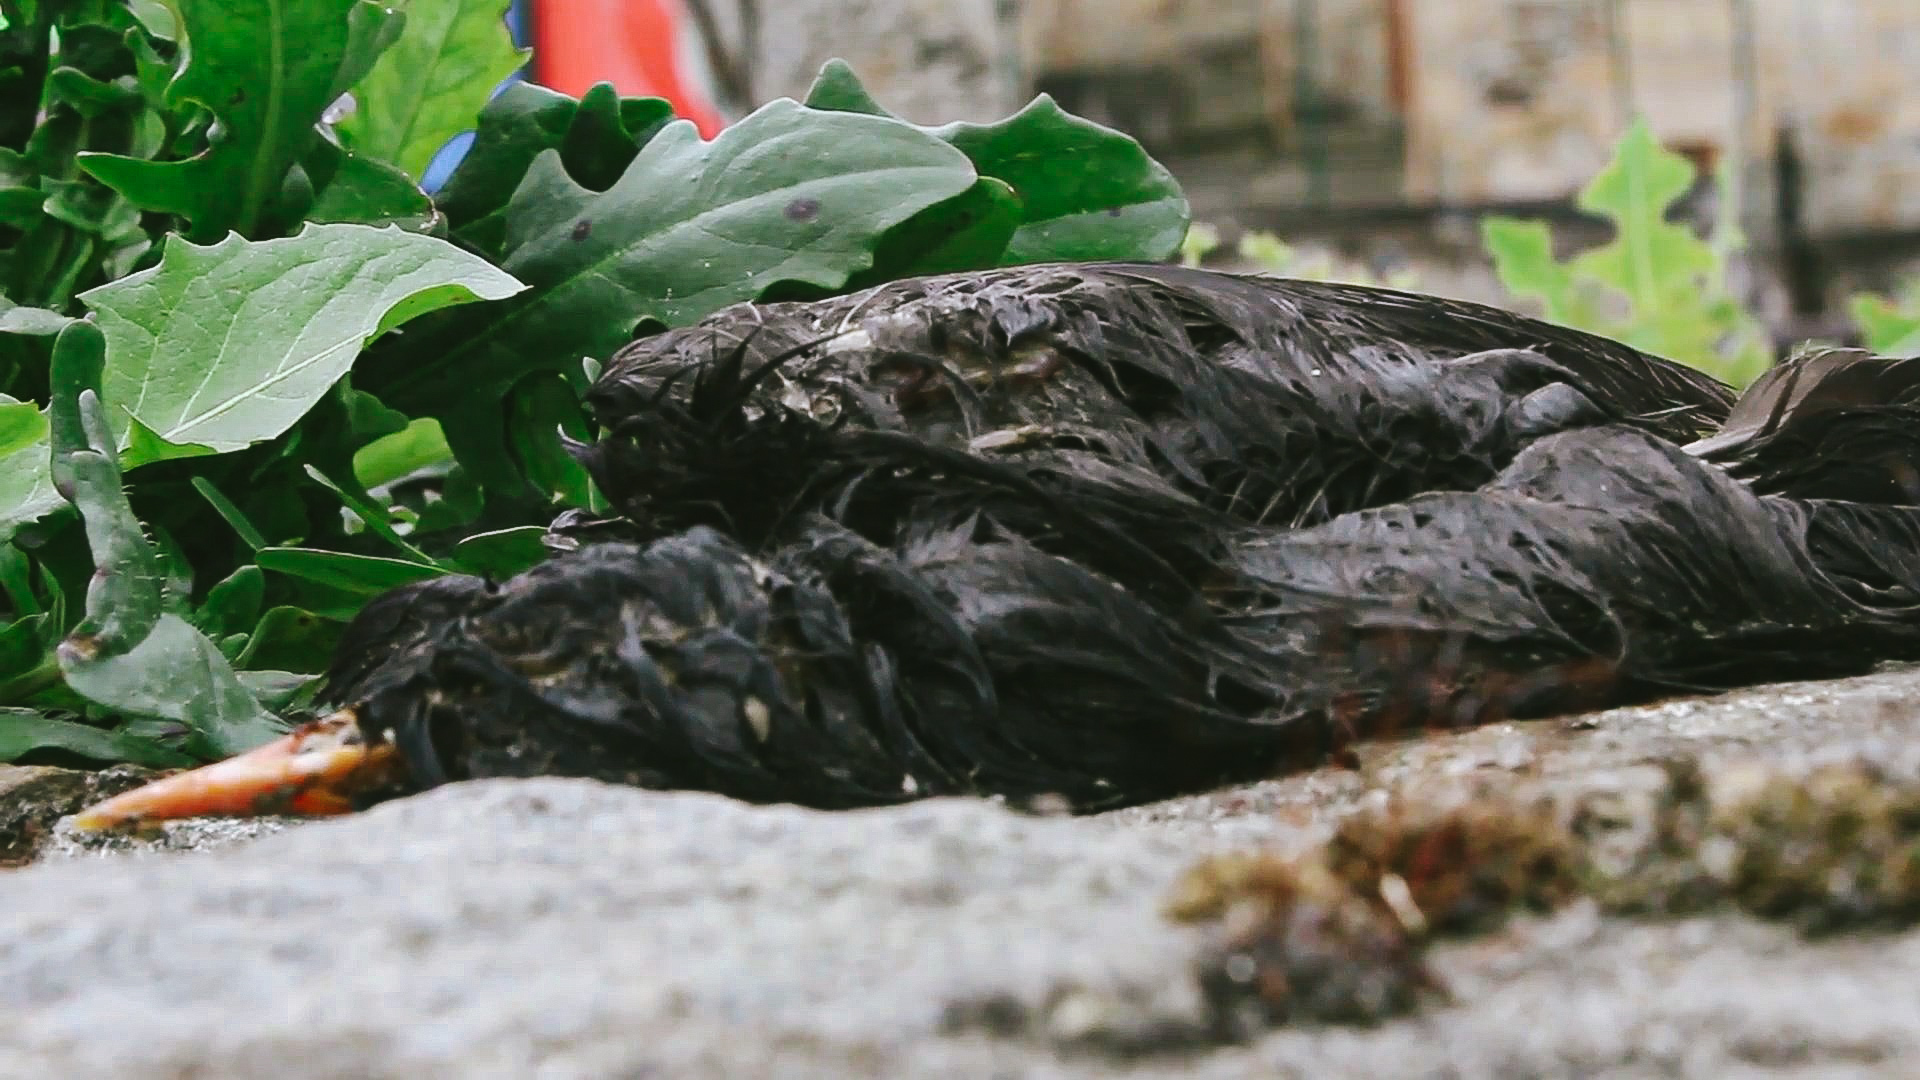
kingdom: Animalia
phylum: Chordata
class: Aves
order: Passeriformes
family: Turdidae
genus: Turdus
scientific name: Turdus merula
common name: Common blackbird
